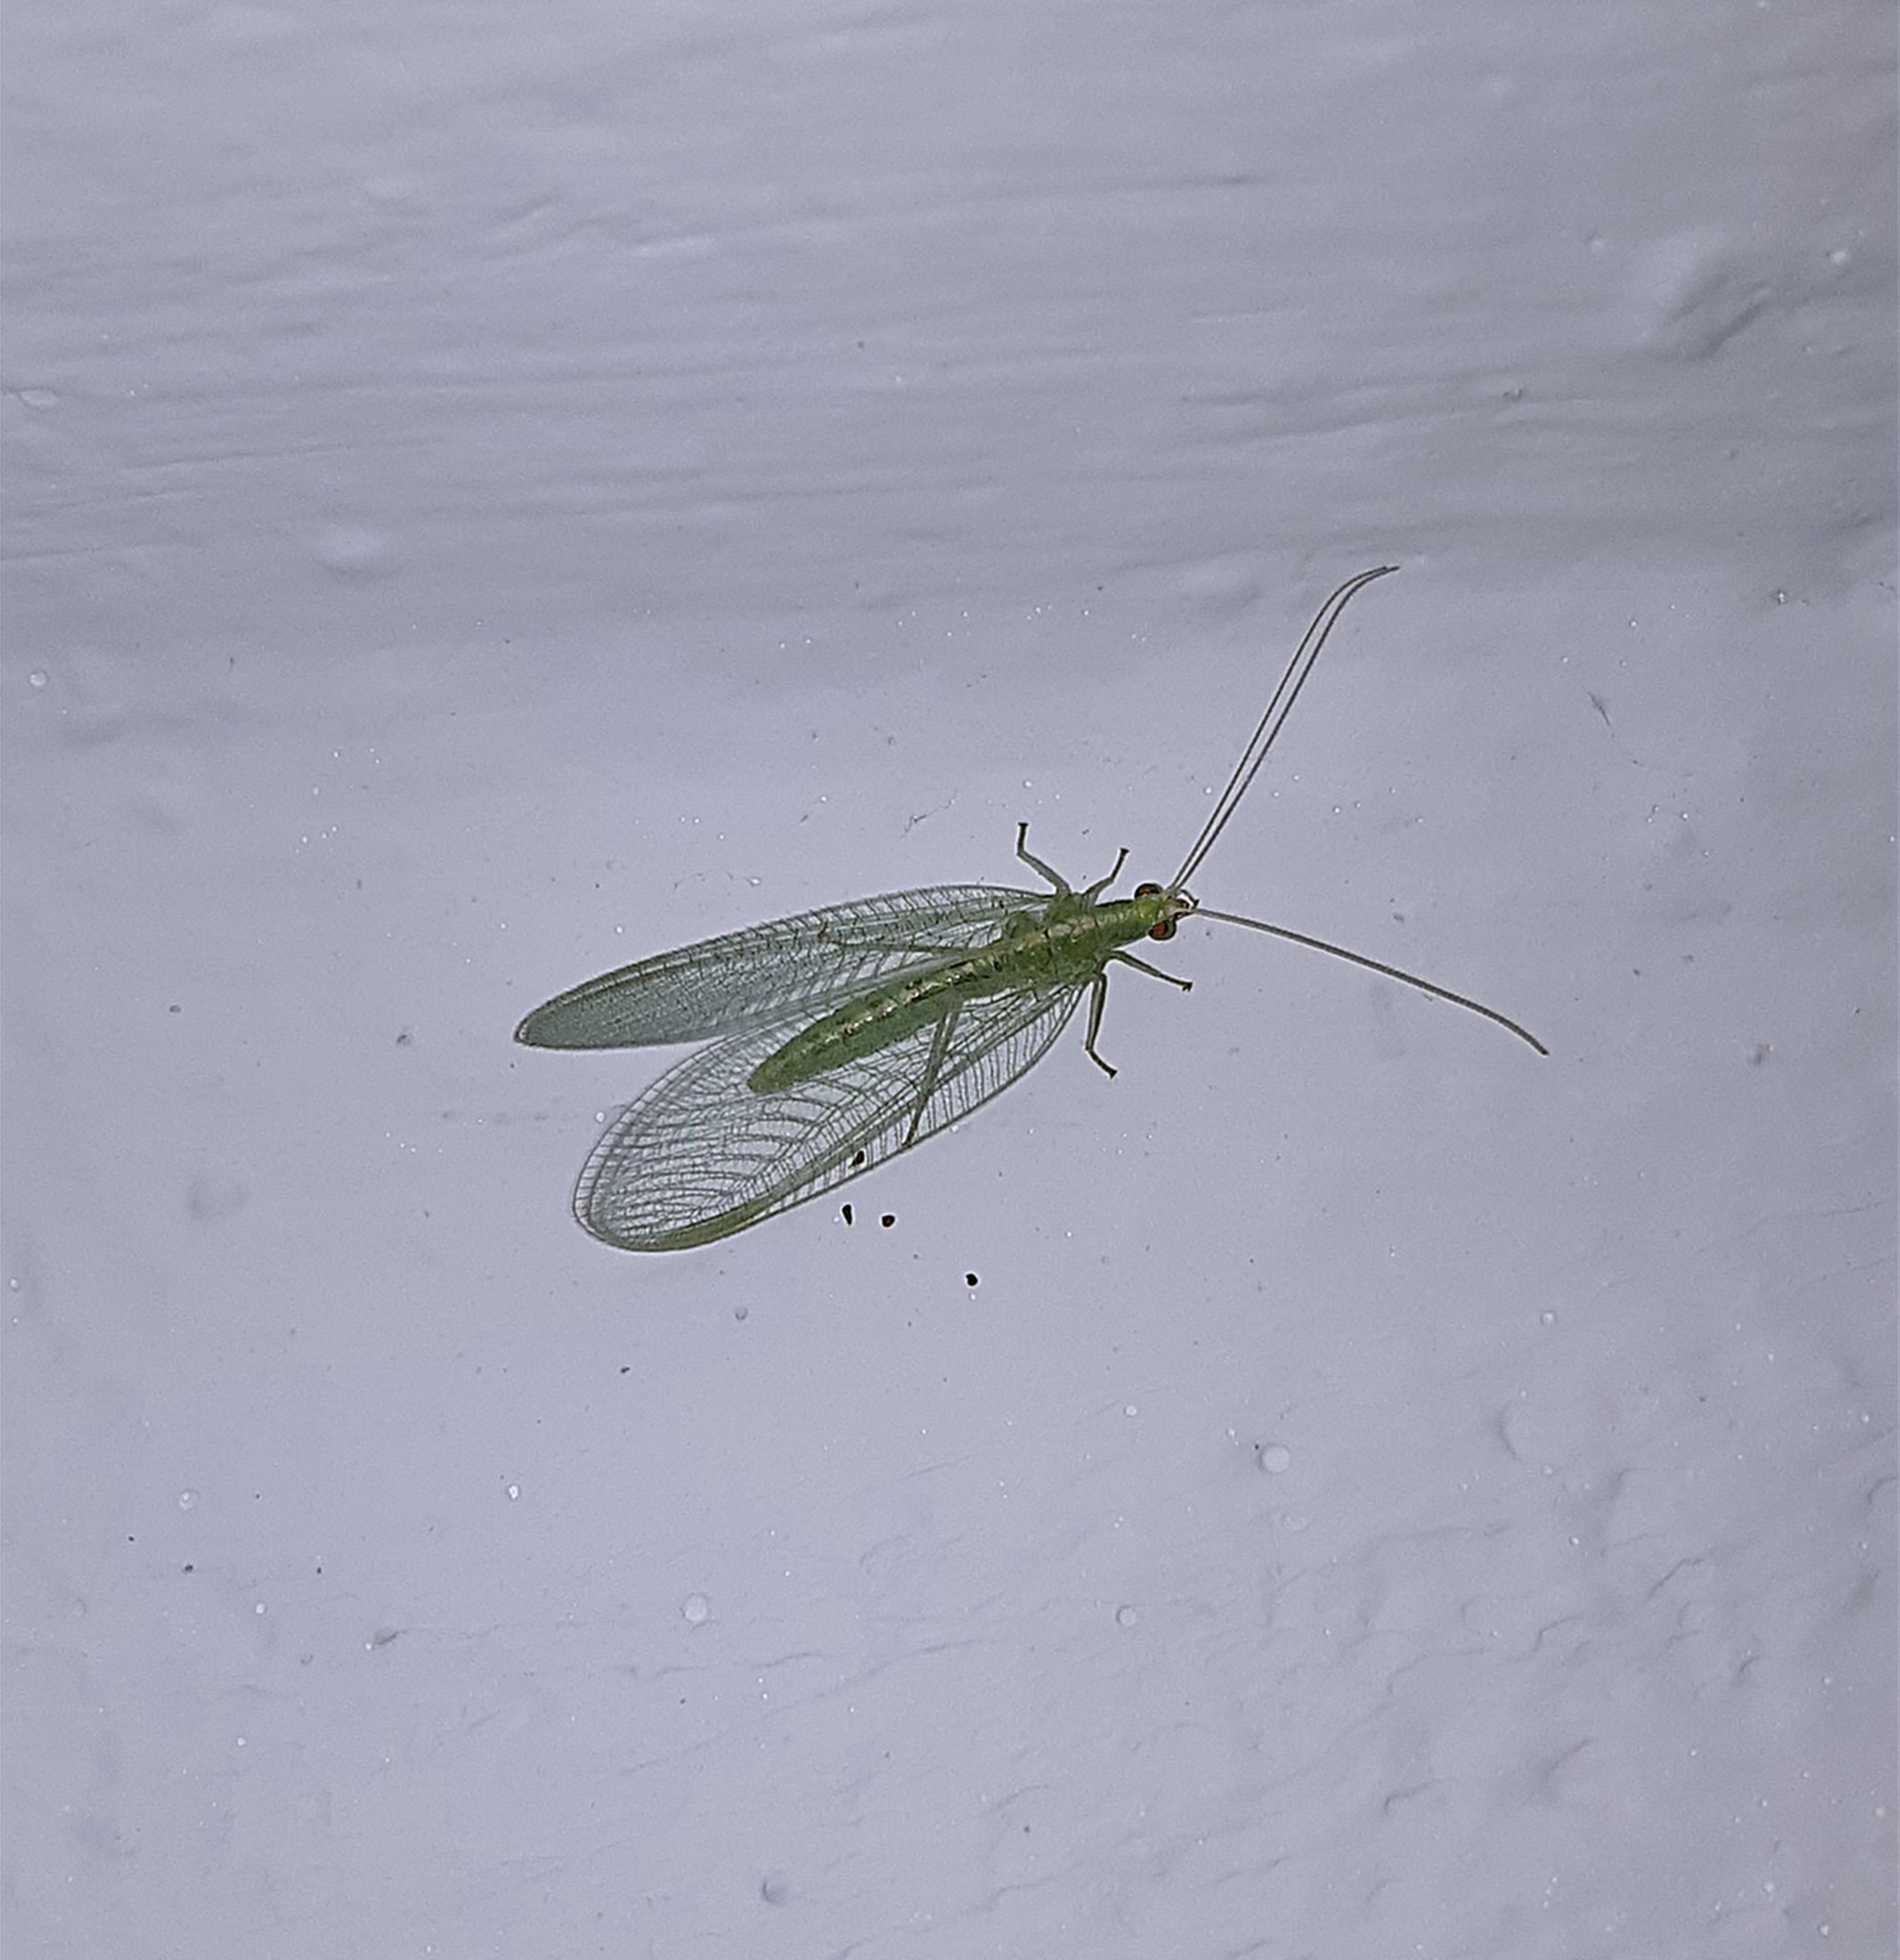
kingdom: Animalia
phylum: Arthropoda
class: Insecta
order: Neuroptera
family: Chrysopidae
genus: Chrysoperla
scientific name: Chrysoperla
